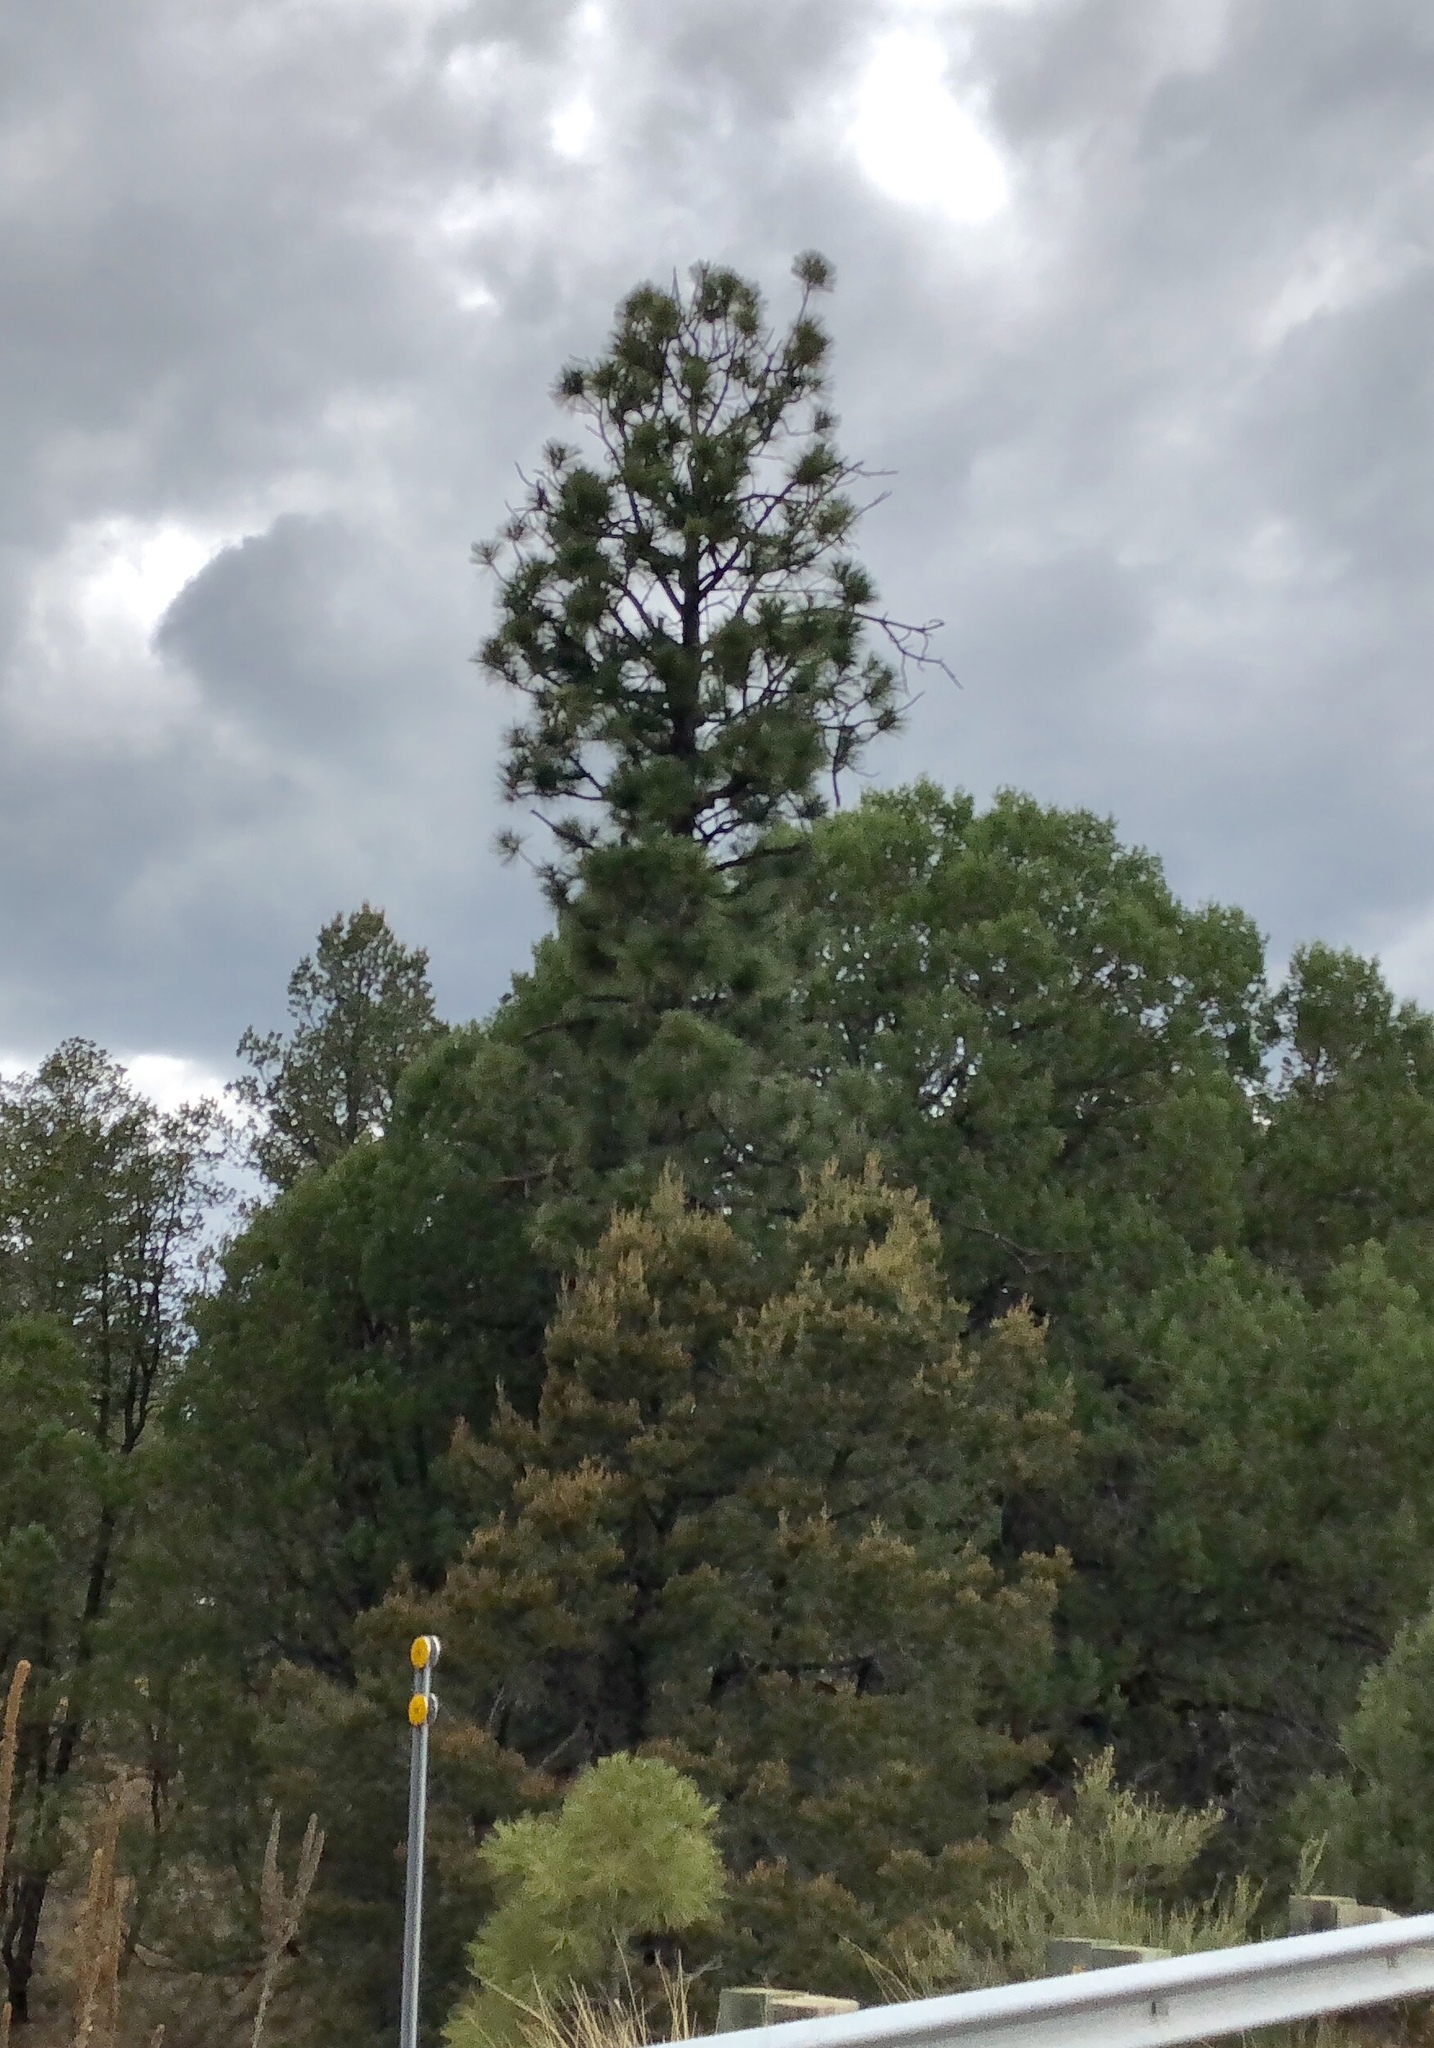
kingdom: Plantae
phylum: Tracheophyta
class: Pinopsida
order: Pinales
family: Pinaceae
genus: Pinus
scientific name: Pinus ponderosa
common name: Western yellow-pine
